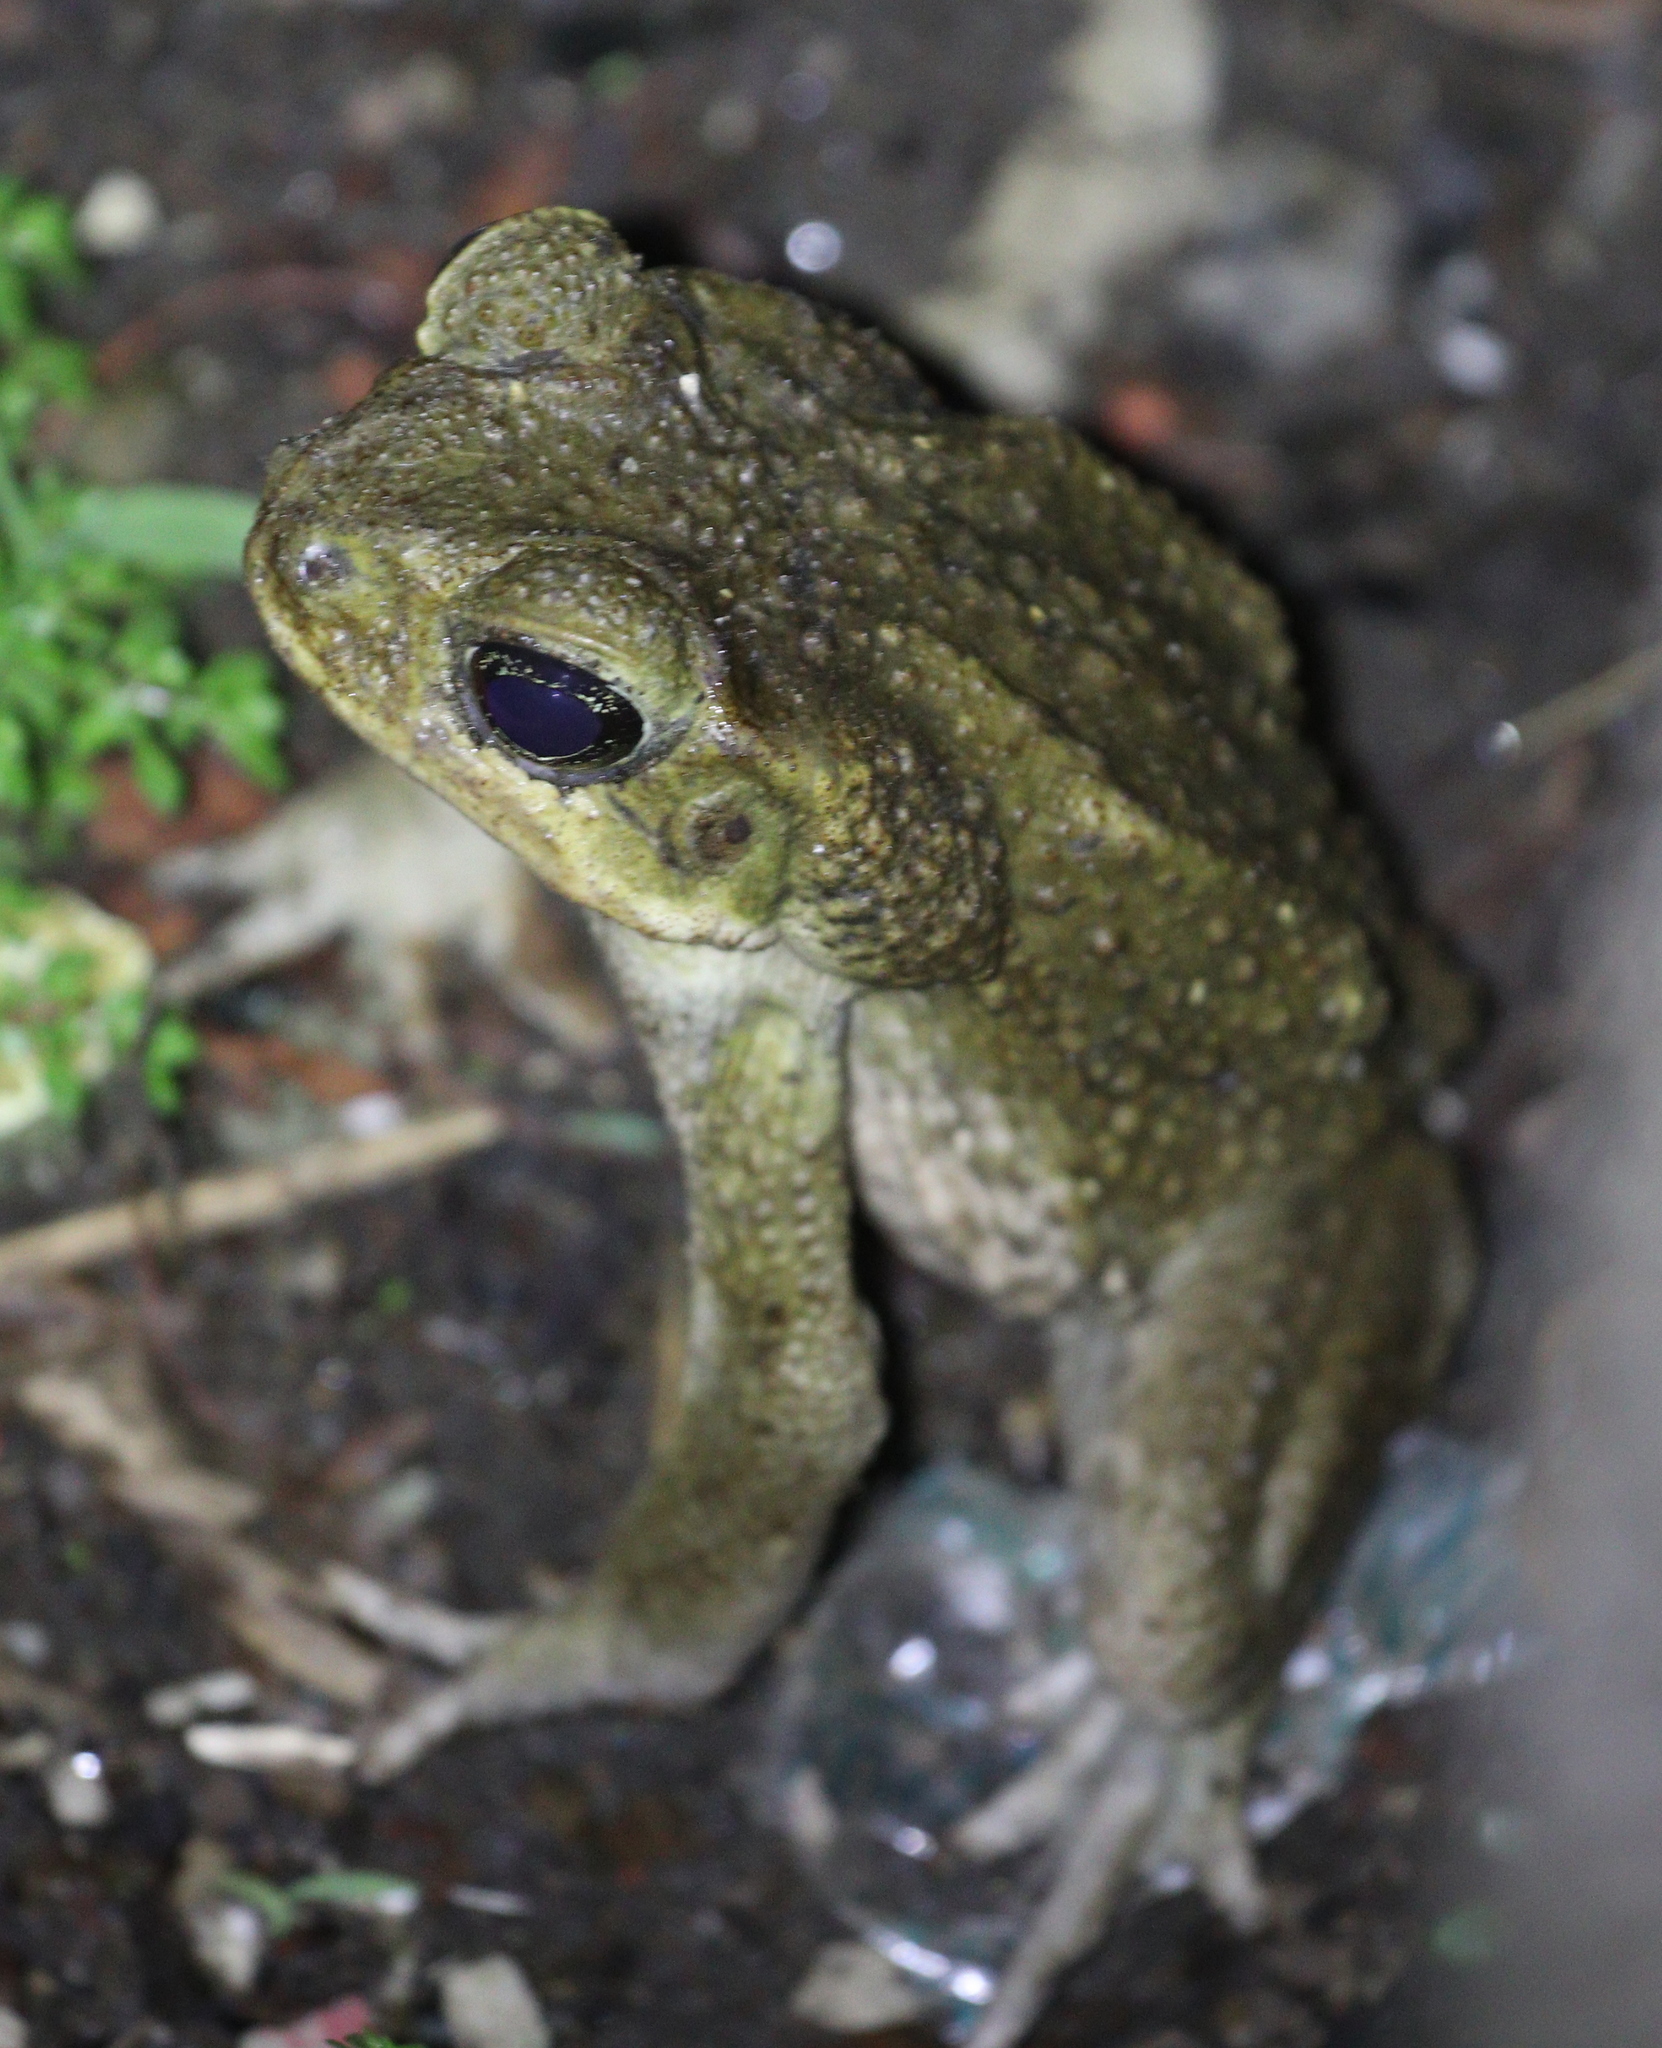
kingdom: Animalia
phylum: Chordata
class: Amphibia
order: Anura
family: Bufonidae
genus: Rhinella
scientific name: Rhinella horribilis
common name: Mesoamerican cane toad
